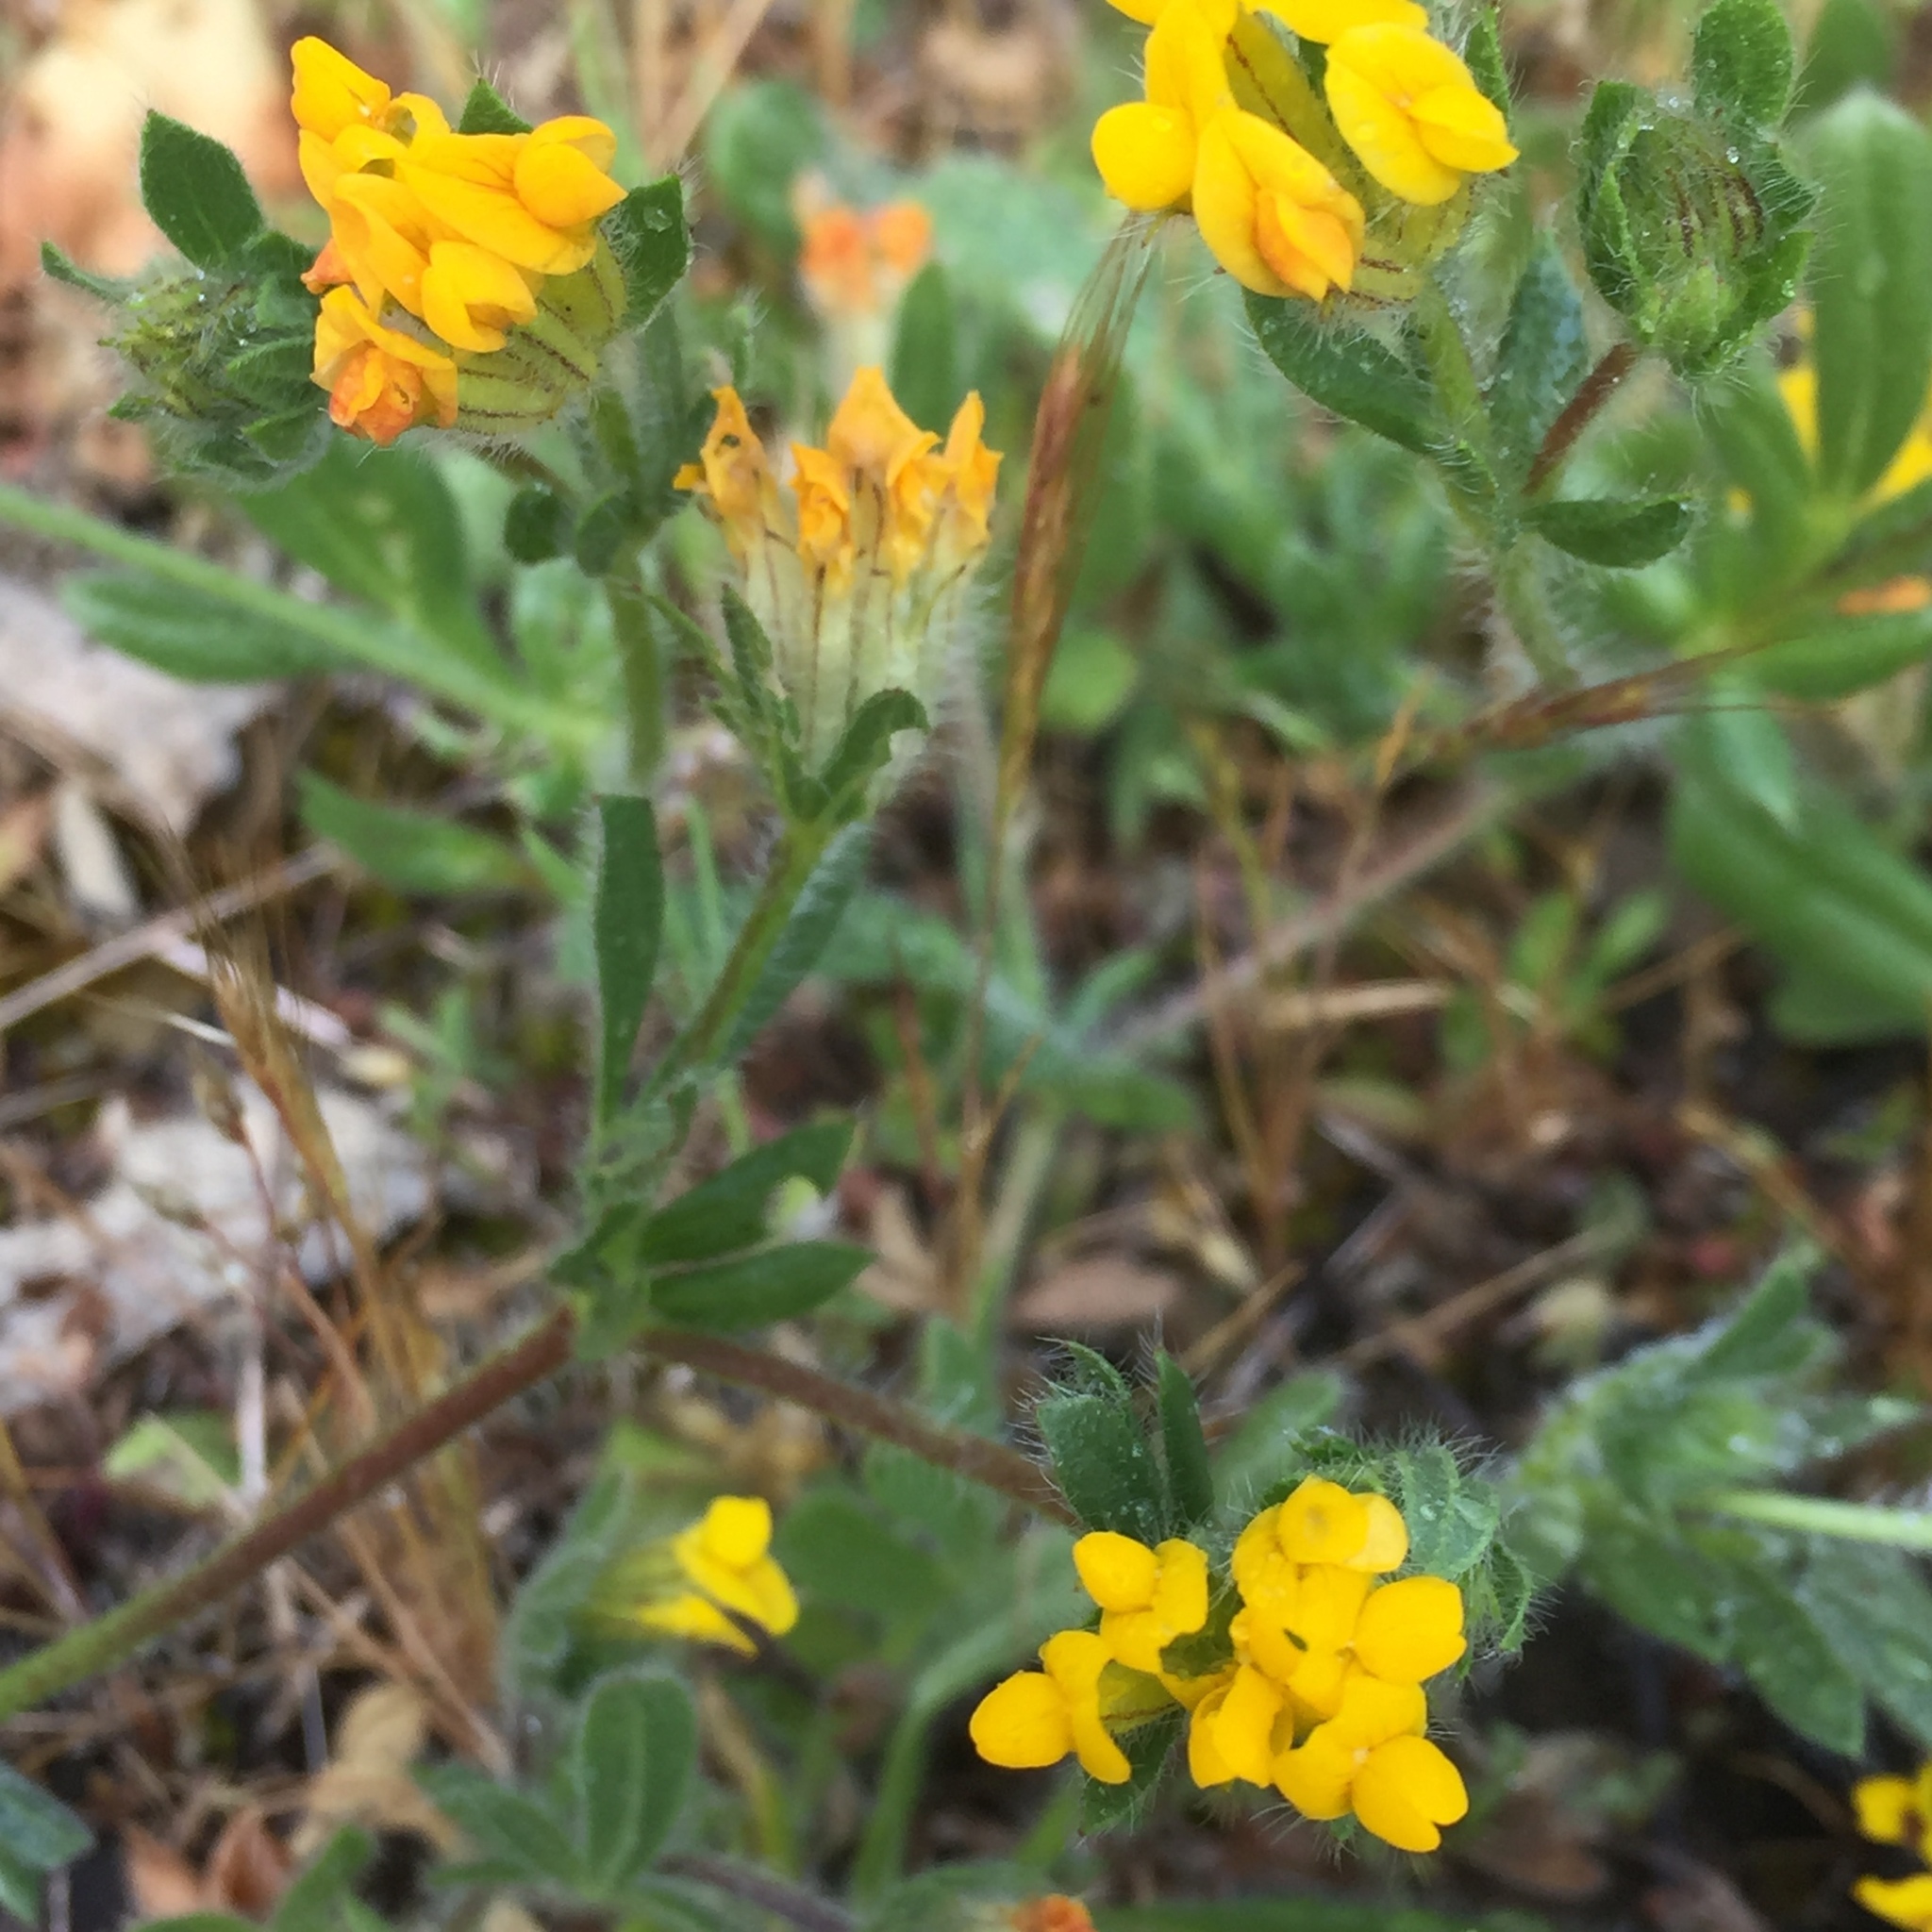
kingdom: Plantae
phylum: Tracheophyta
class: Magnoliopsida
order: Fabales
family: Fabaceae
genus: Anthyllis
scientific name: Anthyllis lotoides
